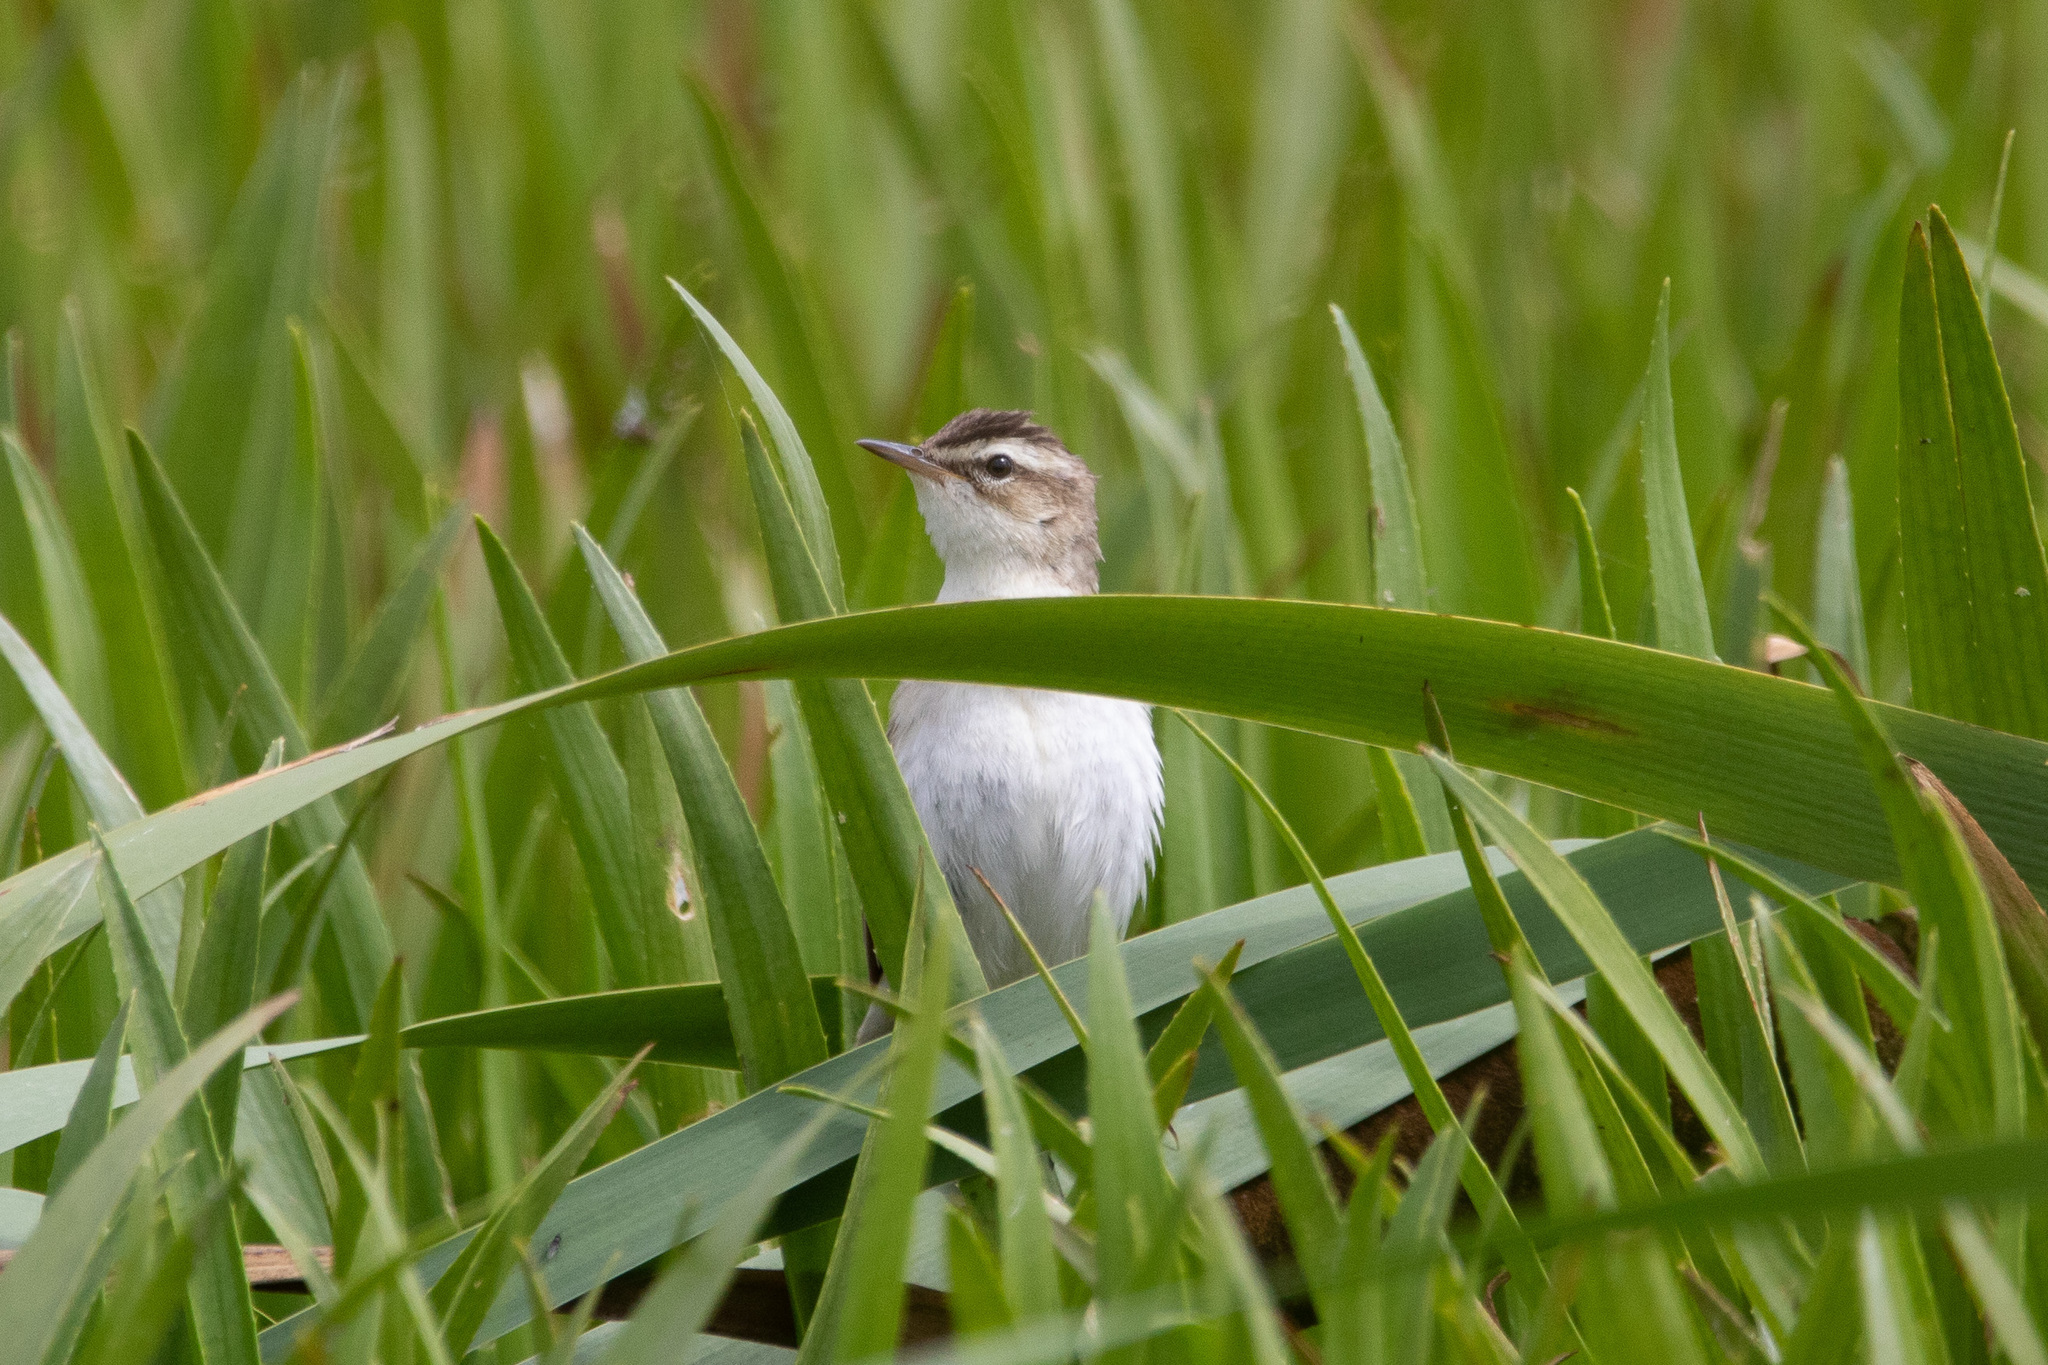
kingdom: Animalia
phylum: Chordata
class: Aves
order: Passeriformes
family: Acrocephalidae
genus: Acrocephalus
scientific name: Acrocephalus schoenobaenus
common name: Sedge warbler
